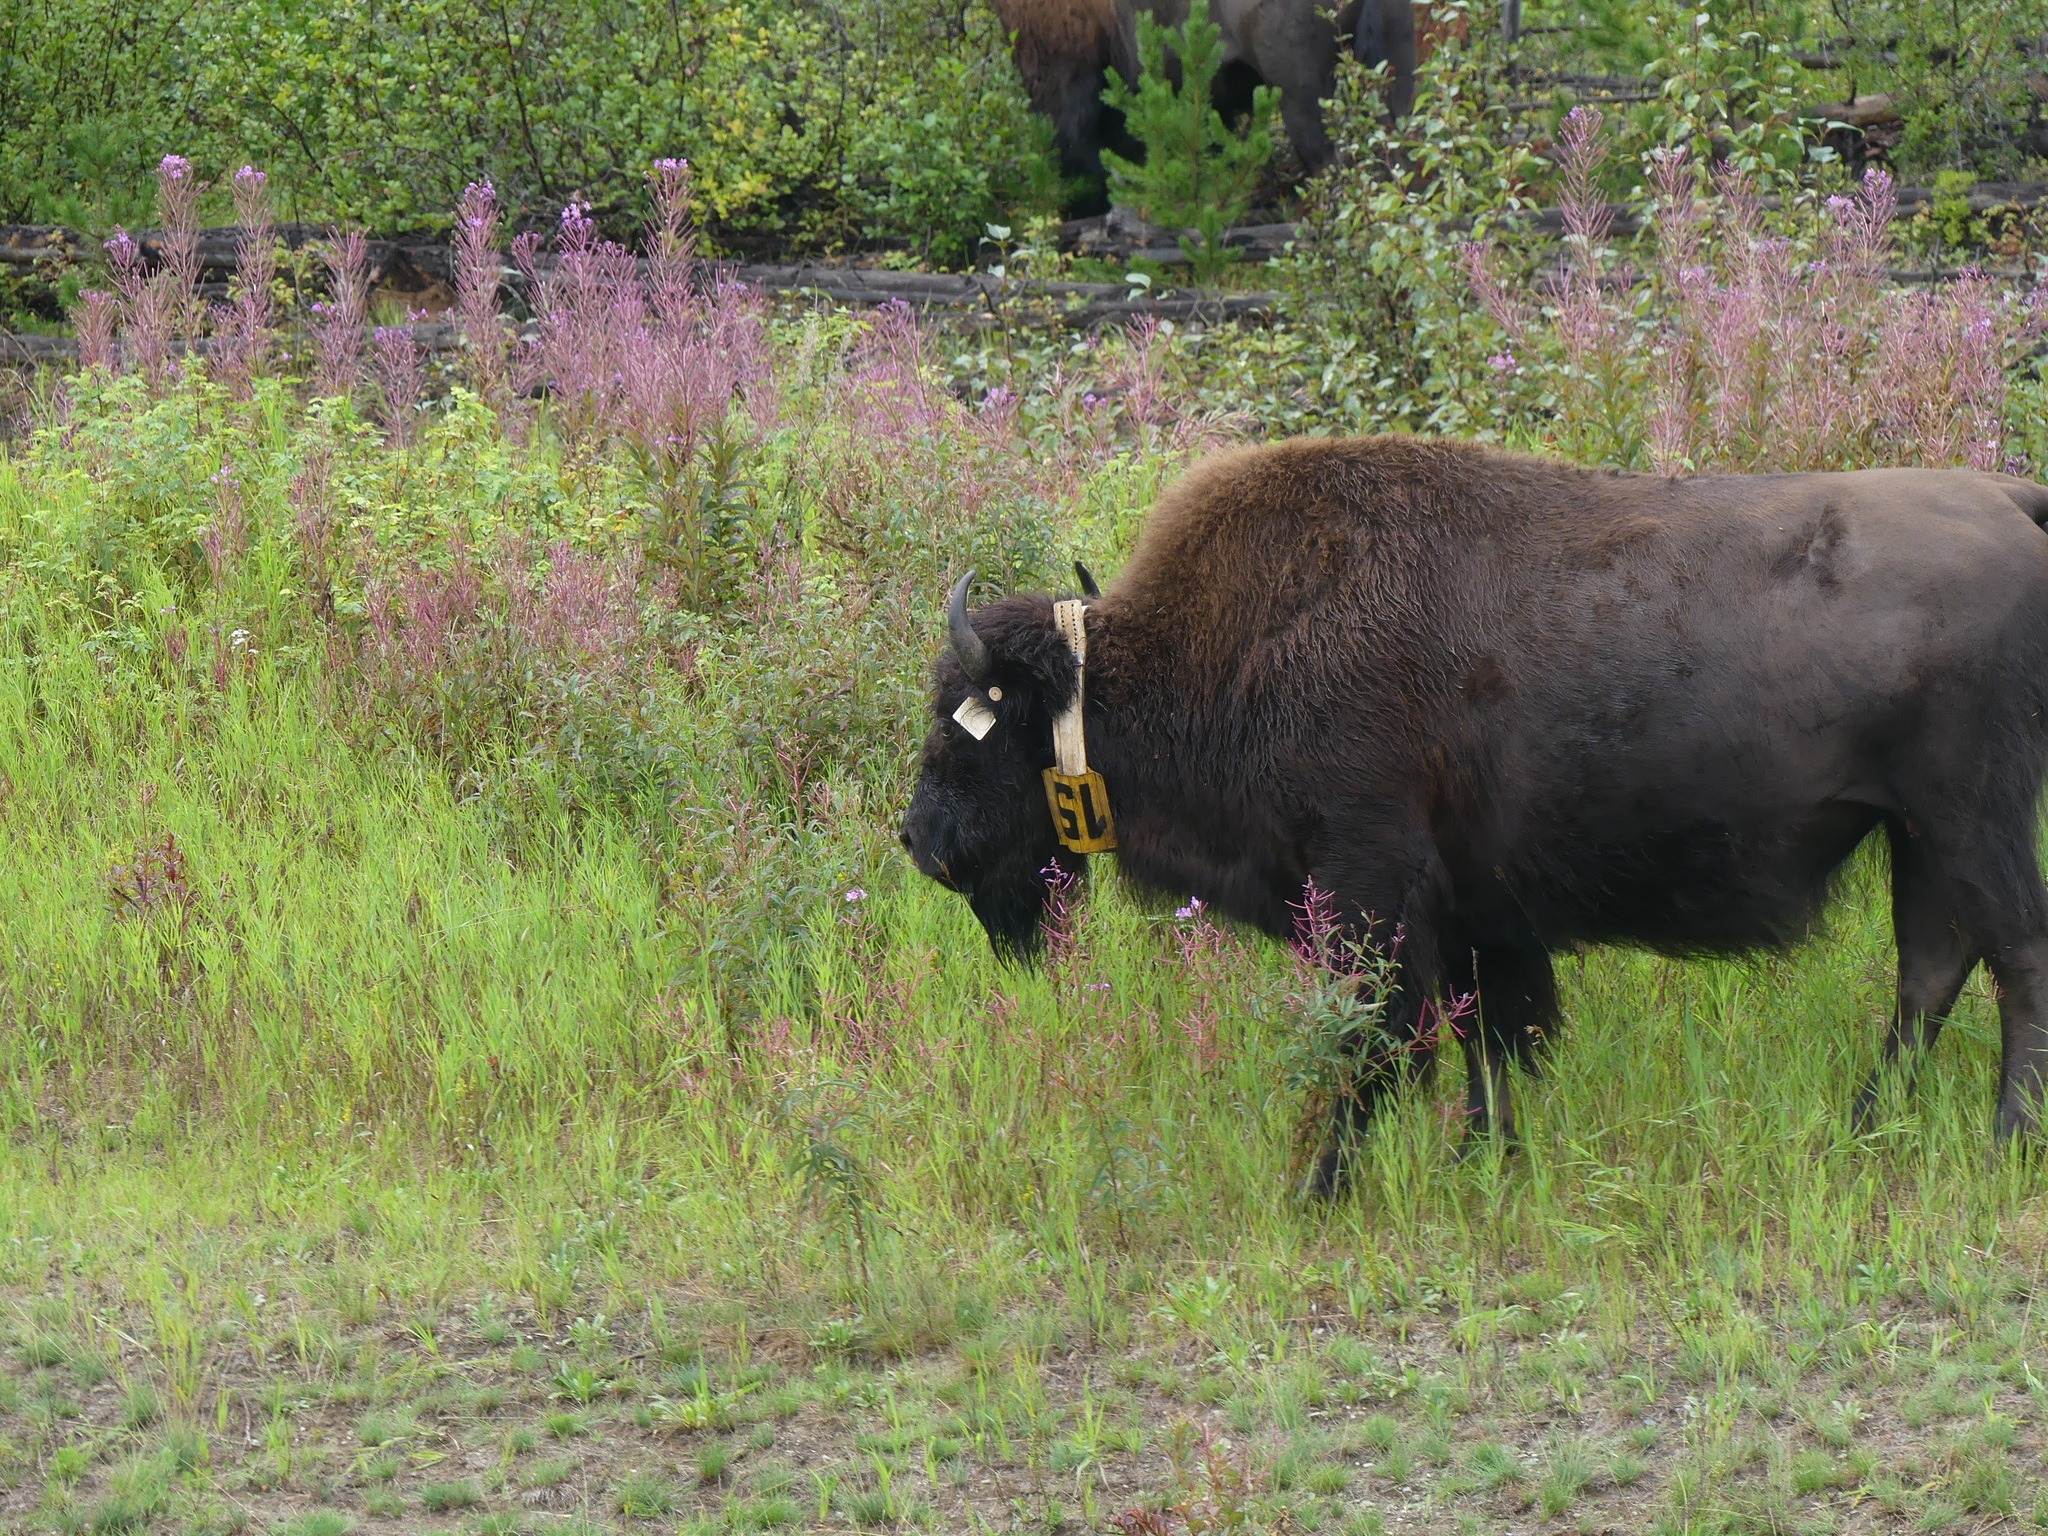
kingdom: Animalia
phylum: Chordata
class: Mammalia
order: Artiodactyla
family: Bovidae
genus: Bison
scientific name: Bison bison
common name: American bison
